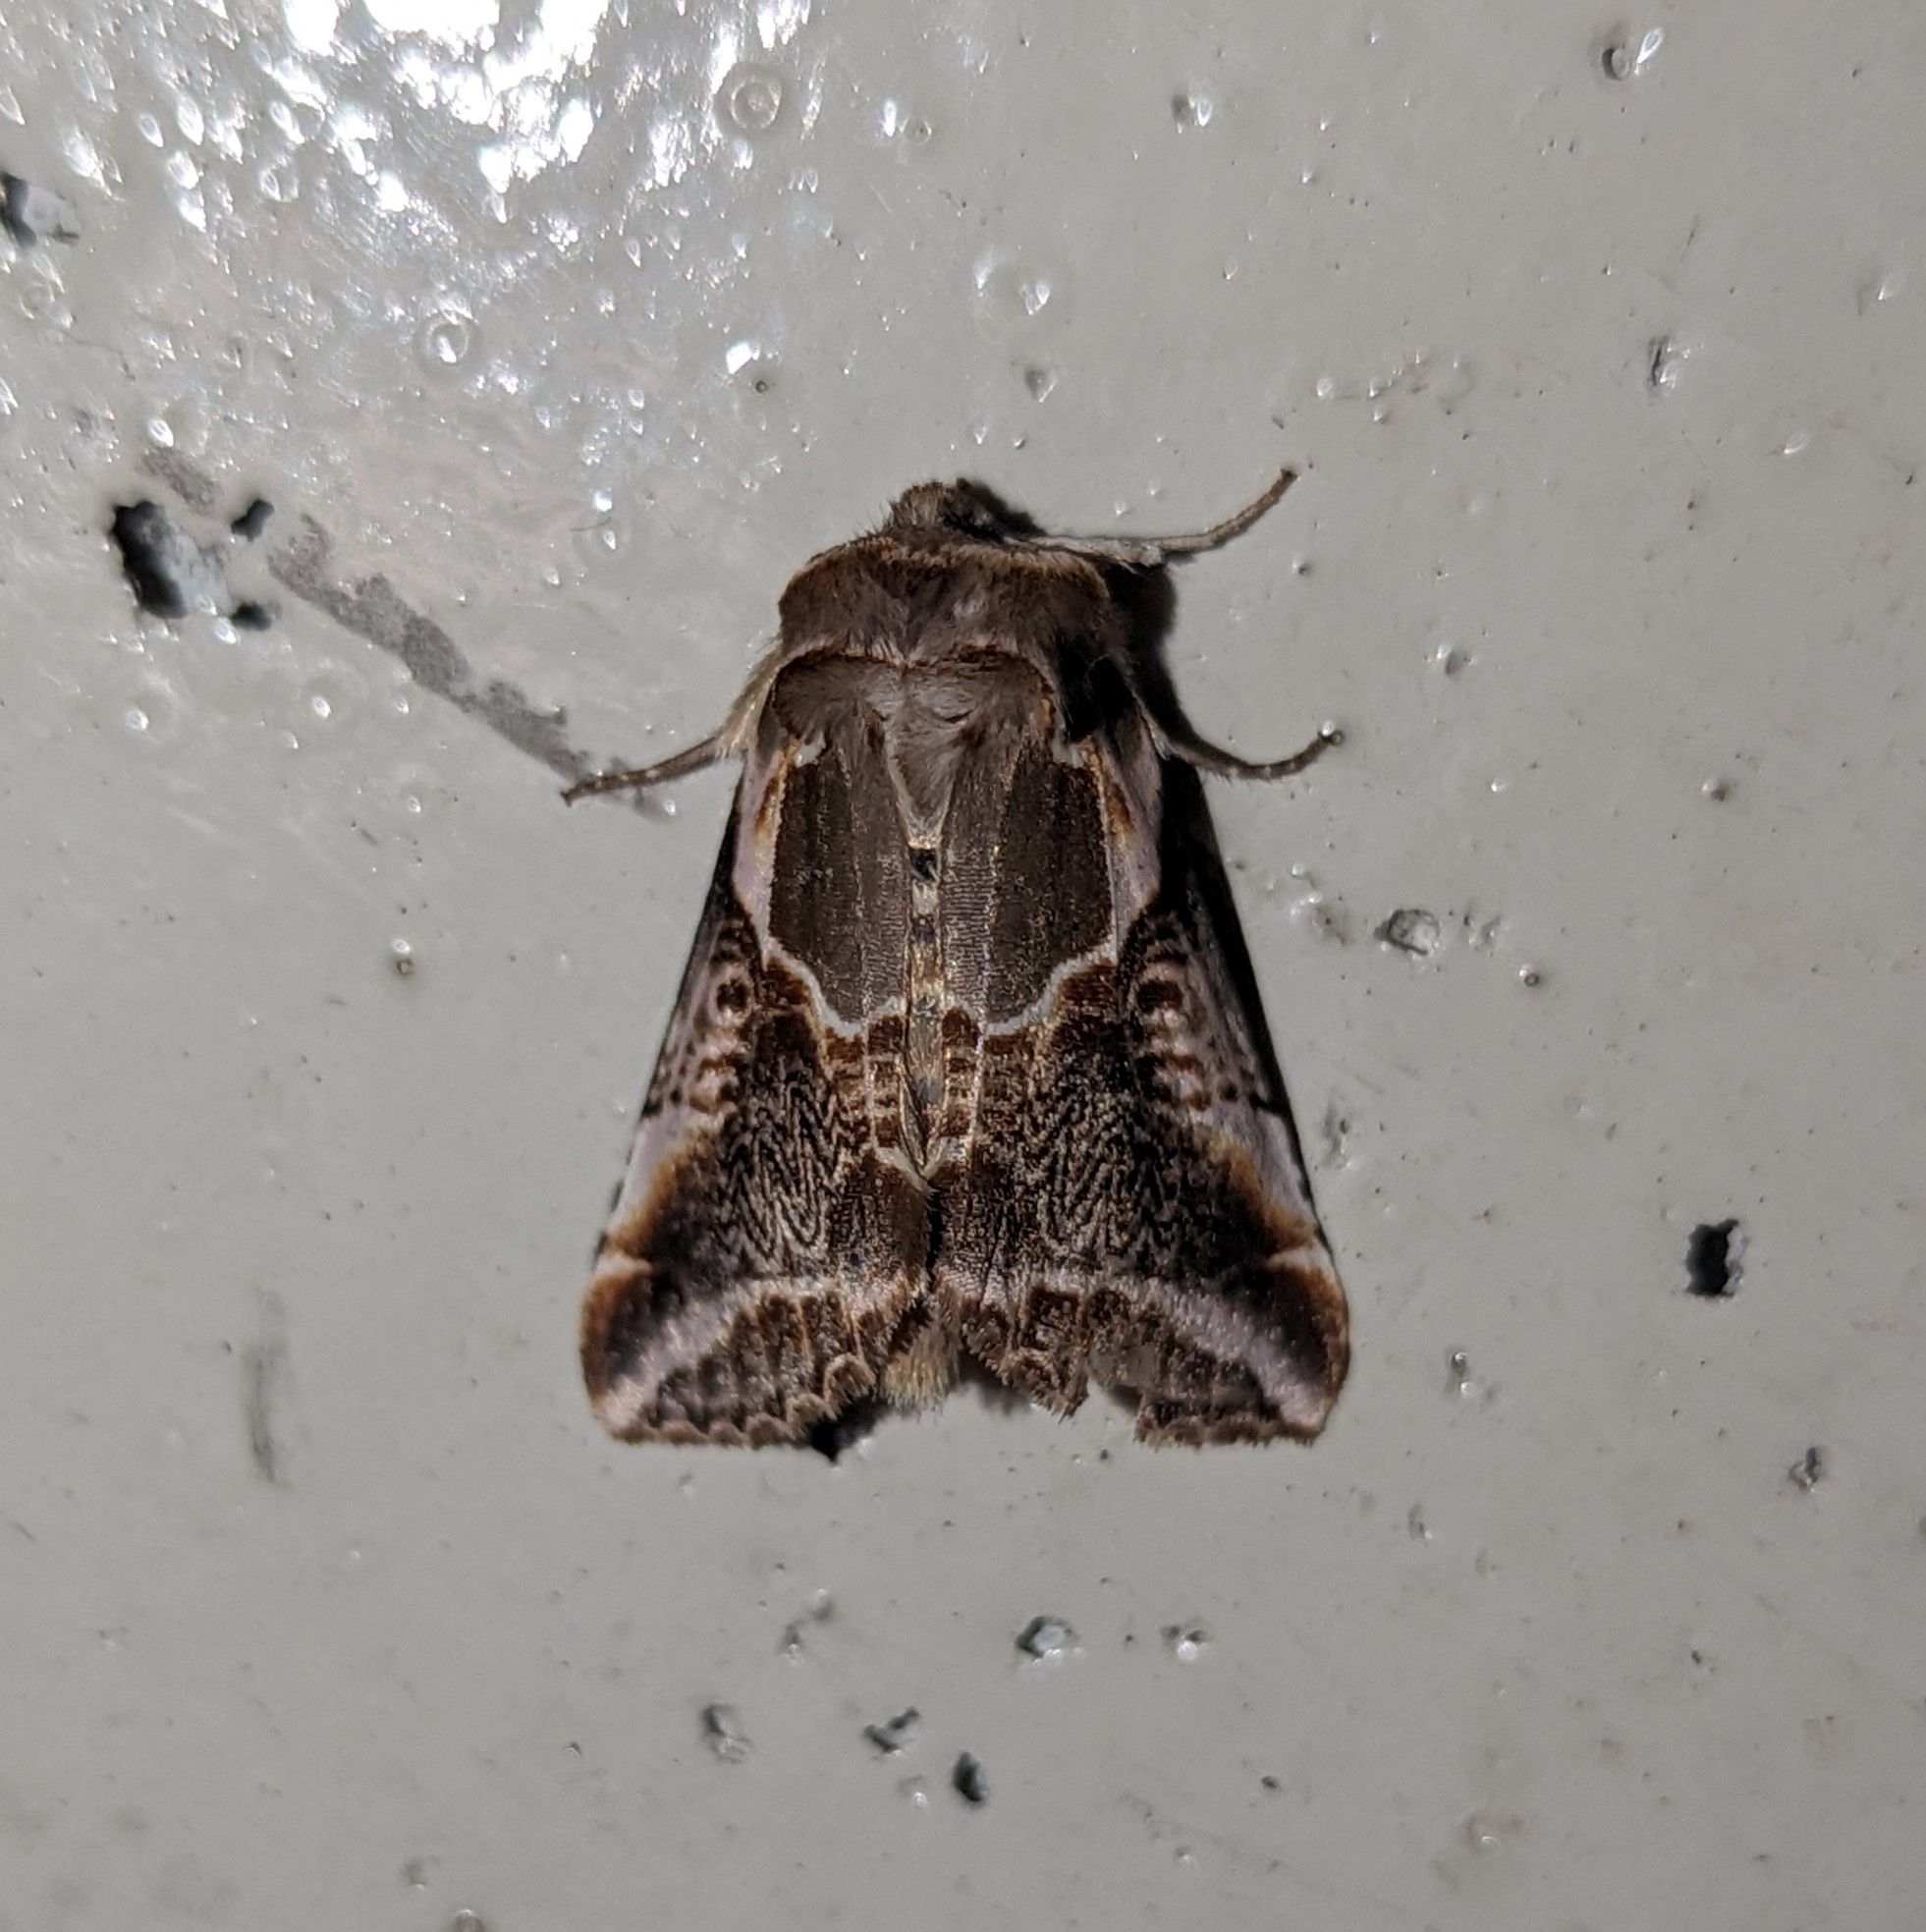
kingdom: Animalia
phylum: Arthropoda
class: Insecta
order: Lepidoptera
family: Drepanidae
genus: Habrosyne
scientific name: Habrosyne scripta
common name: Lettered habrosyne moth
